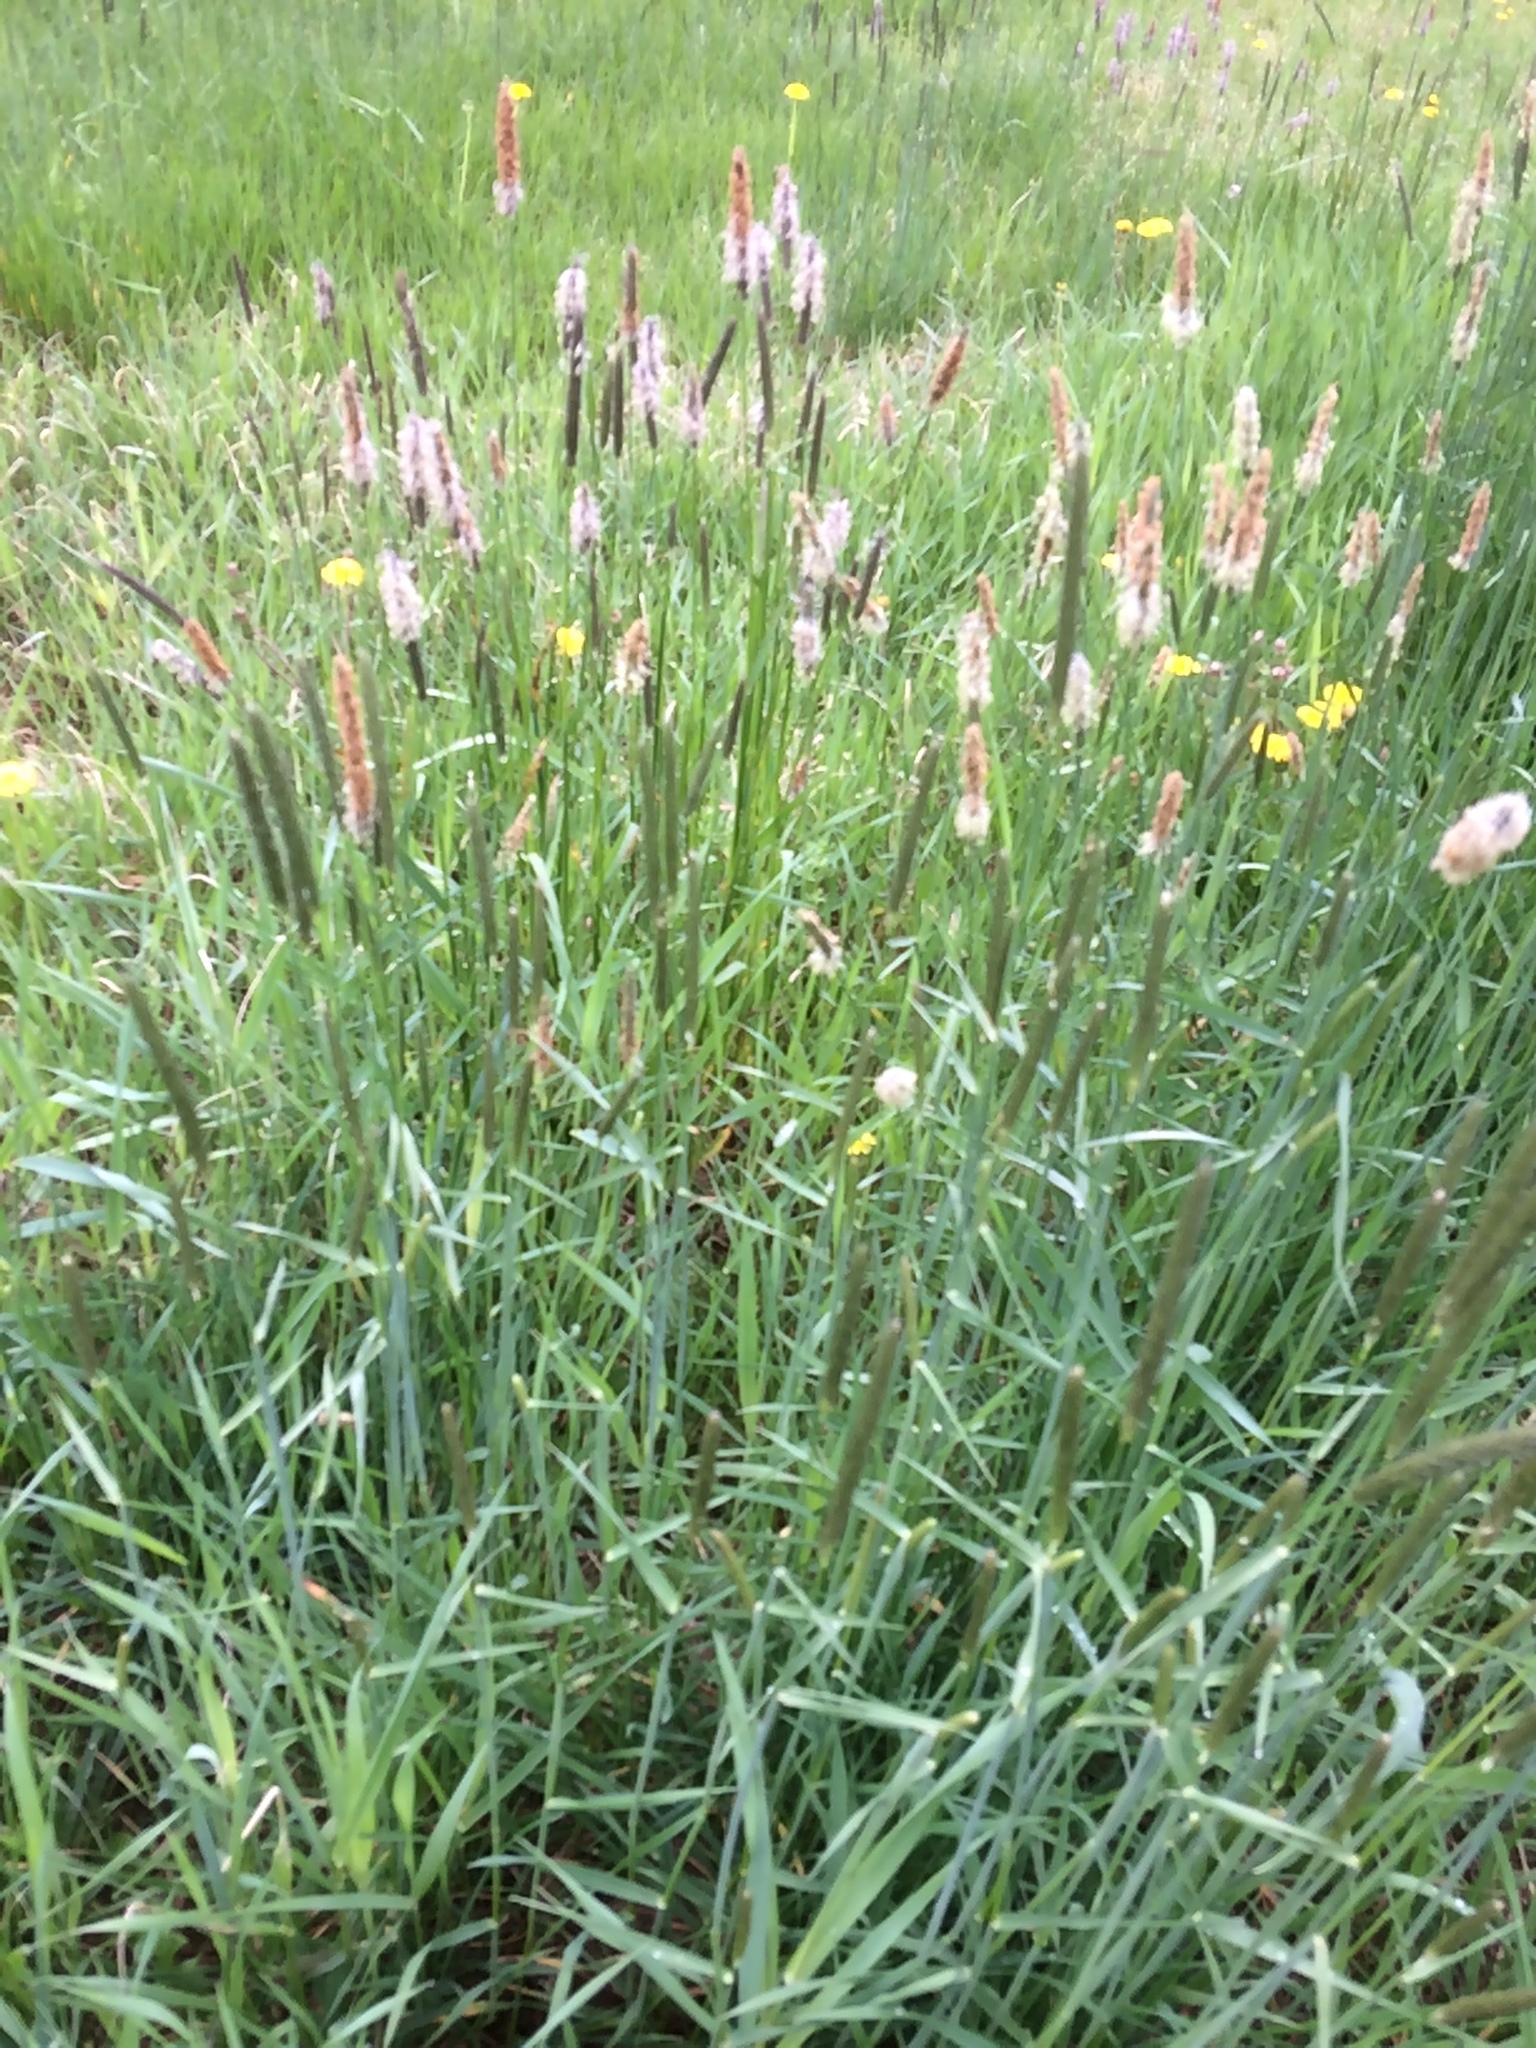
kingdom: Plantae
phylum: Tracheophyta
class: Liliopsida
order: Poales
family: Poaceae
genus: Alopecurus
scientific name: Alopecurus pratensis
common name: Meadow foxtail
